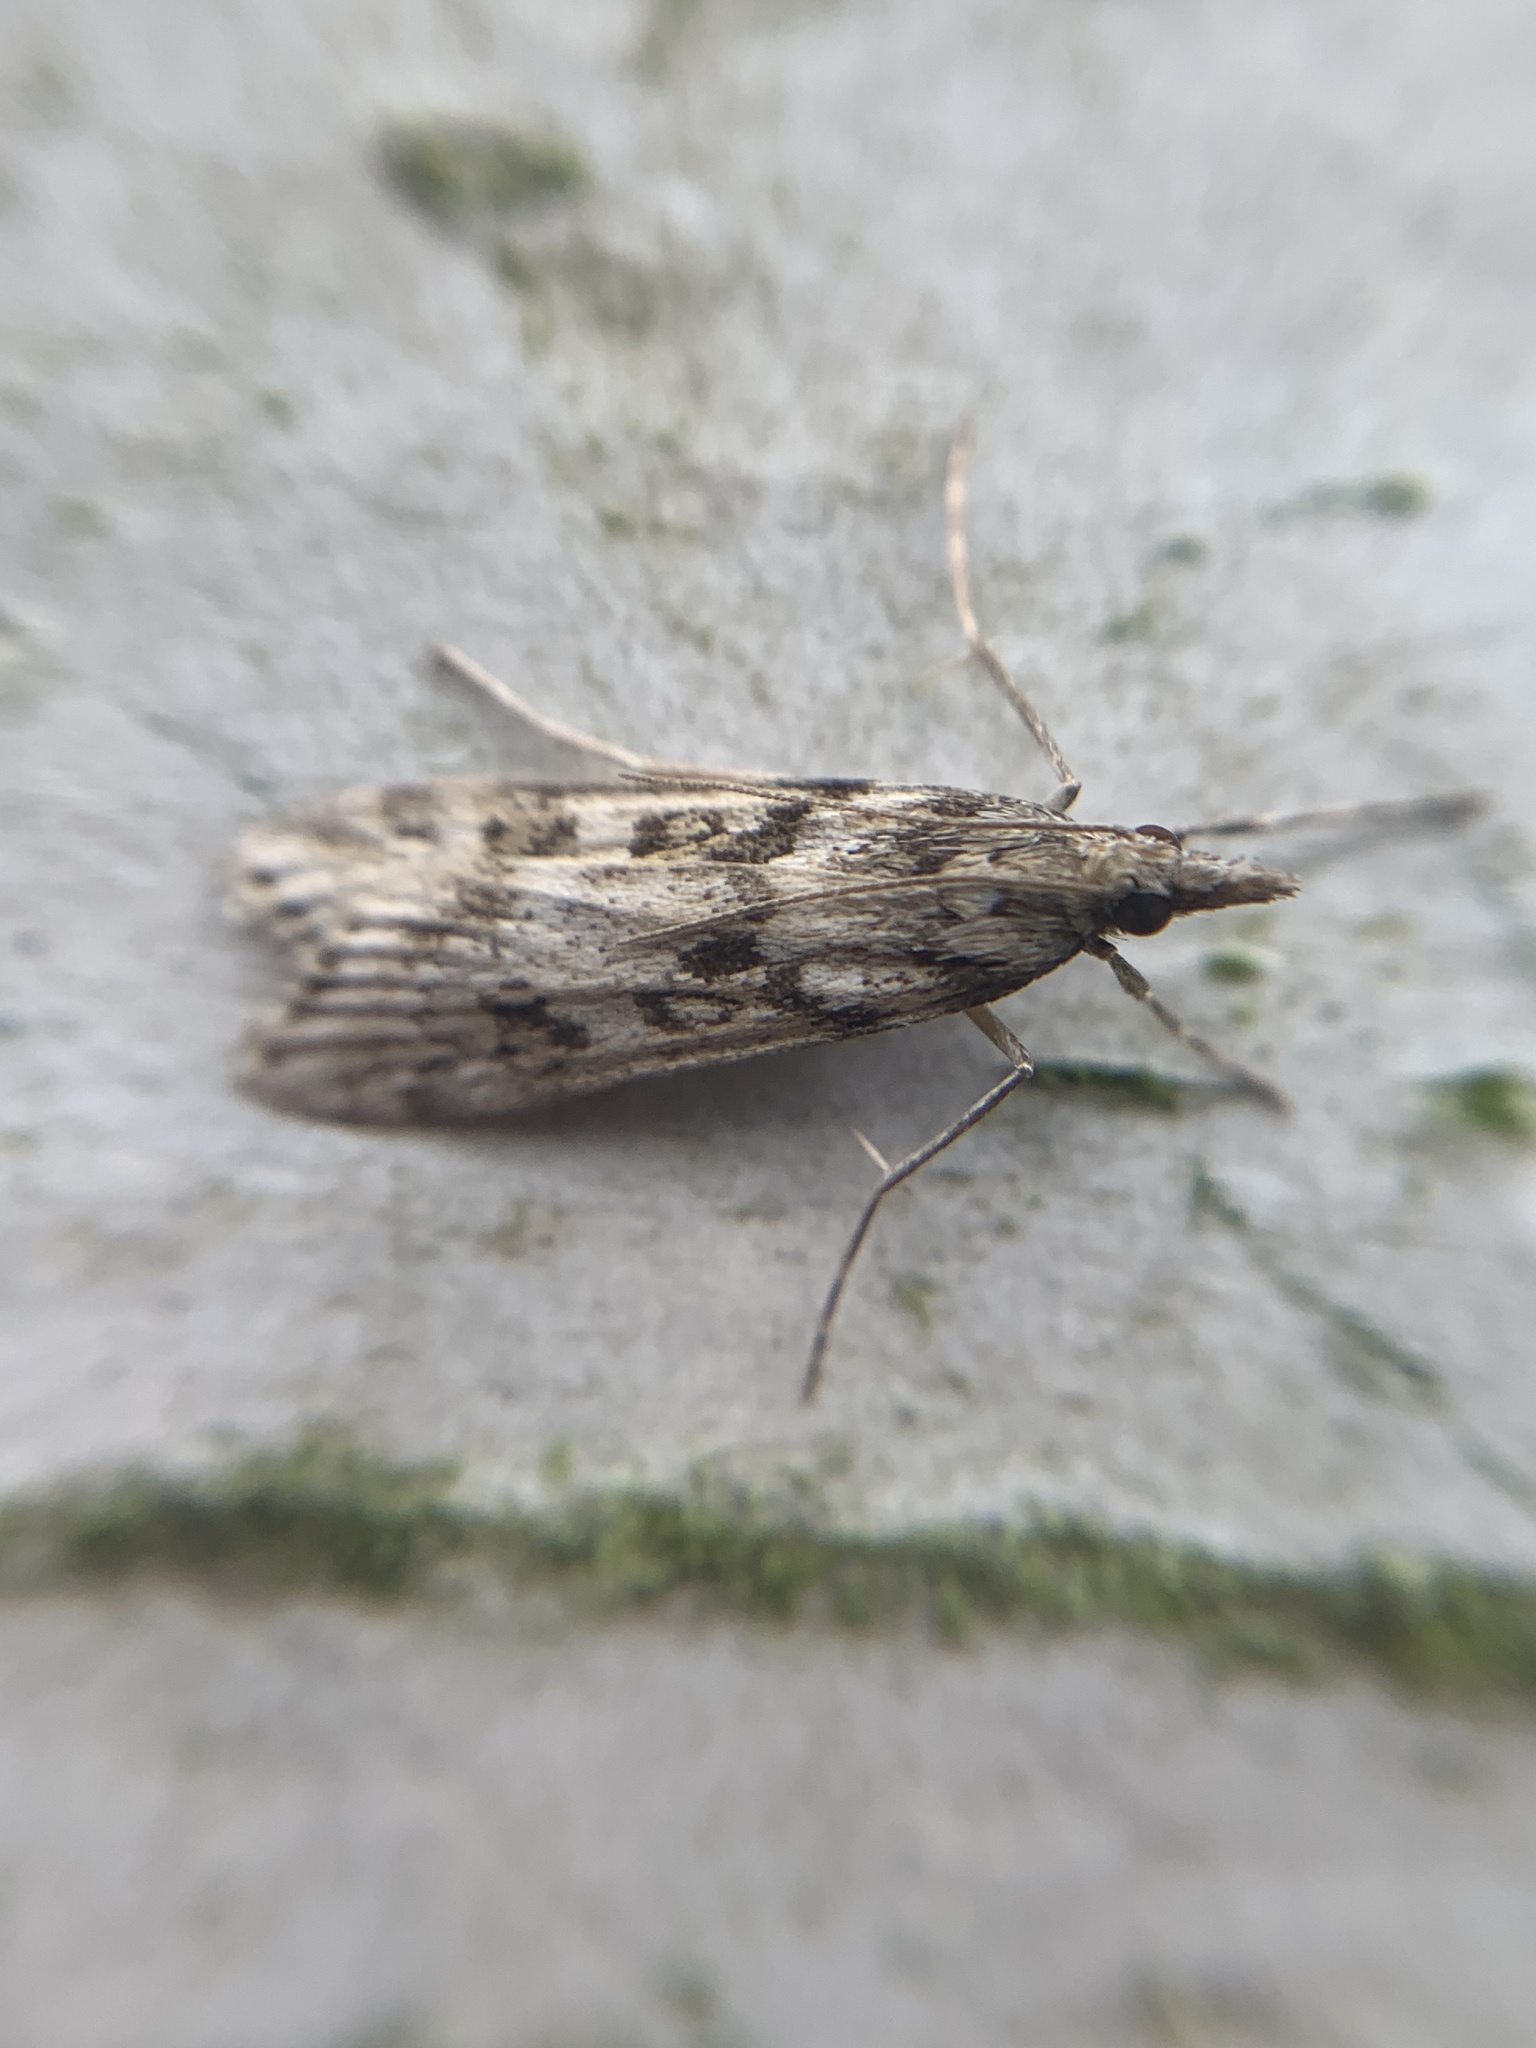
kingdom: Animalia
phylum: Arthropoda
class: Insecta
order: Lepidoptera
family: Crambidae
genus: Eudonia
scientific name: Eudonia angustea
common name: Narrow-winged grey
